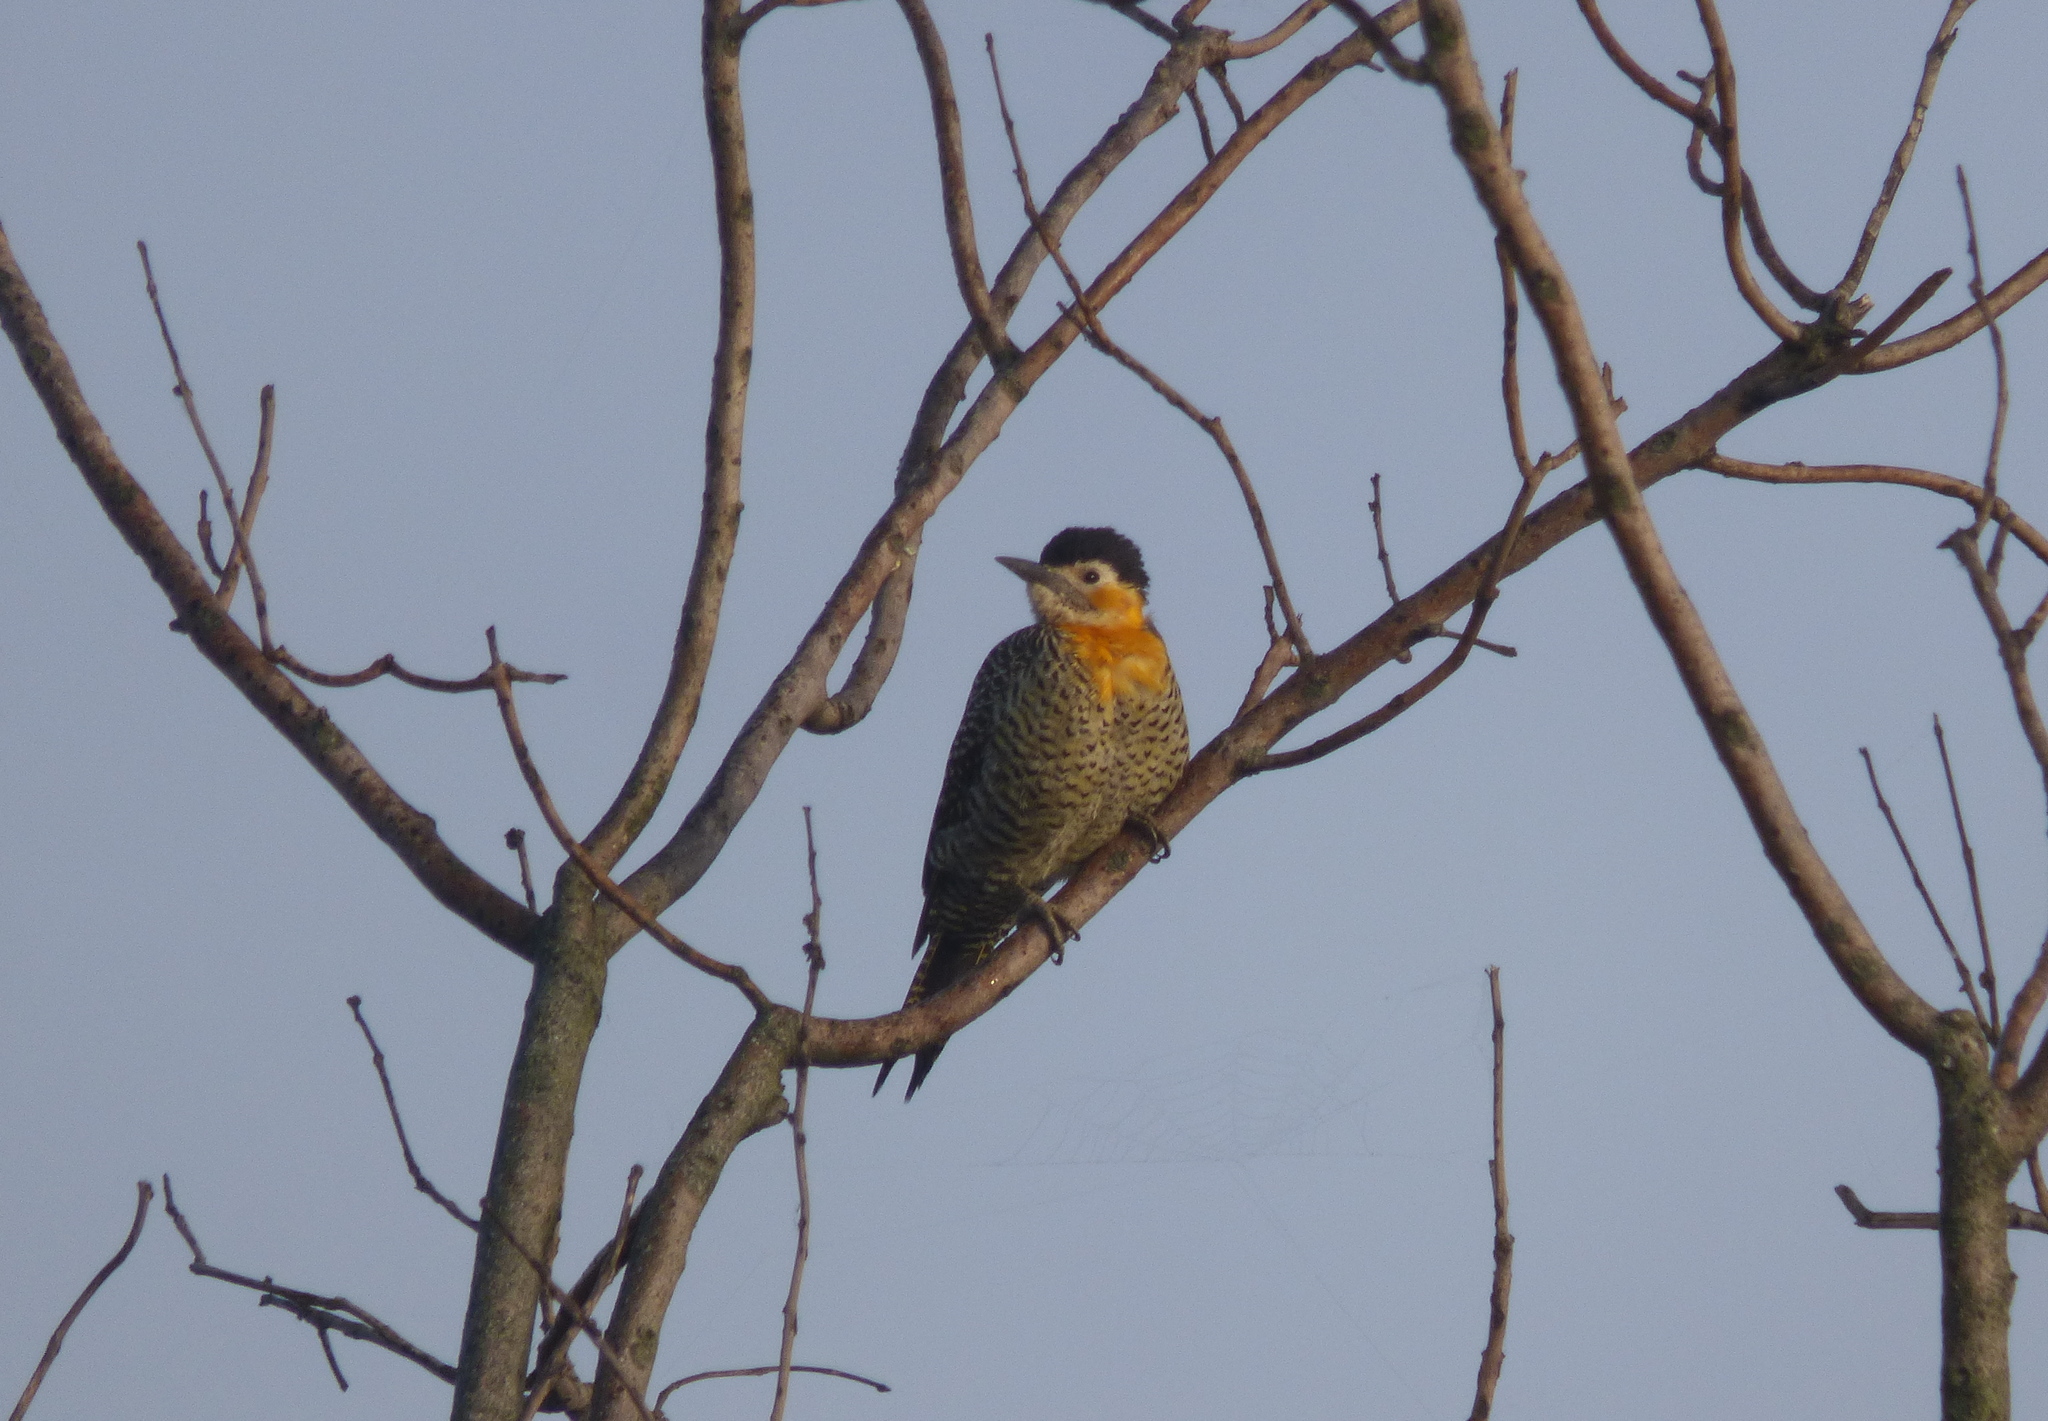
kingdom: Animalia
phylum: Chordata
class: Aves
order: Piciformes
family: Picidae
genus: Colaptes
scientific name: Colaptes campestris
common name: Campo flicker
